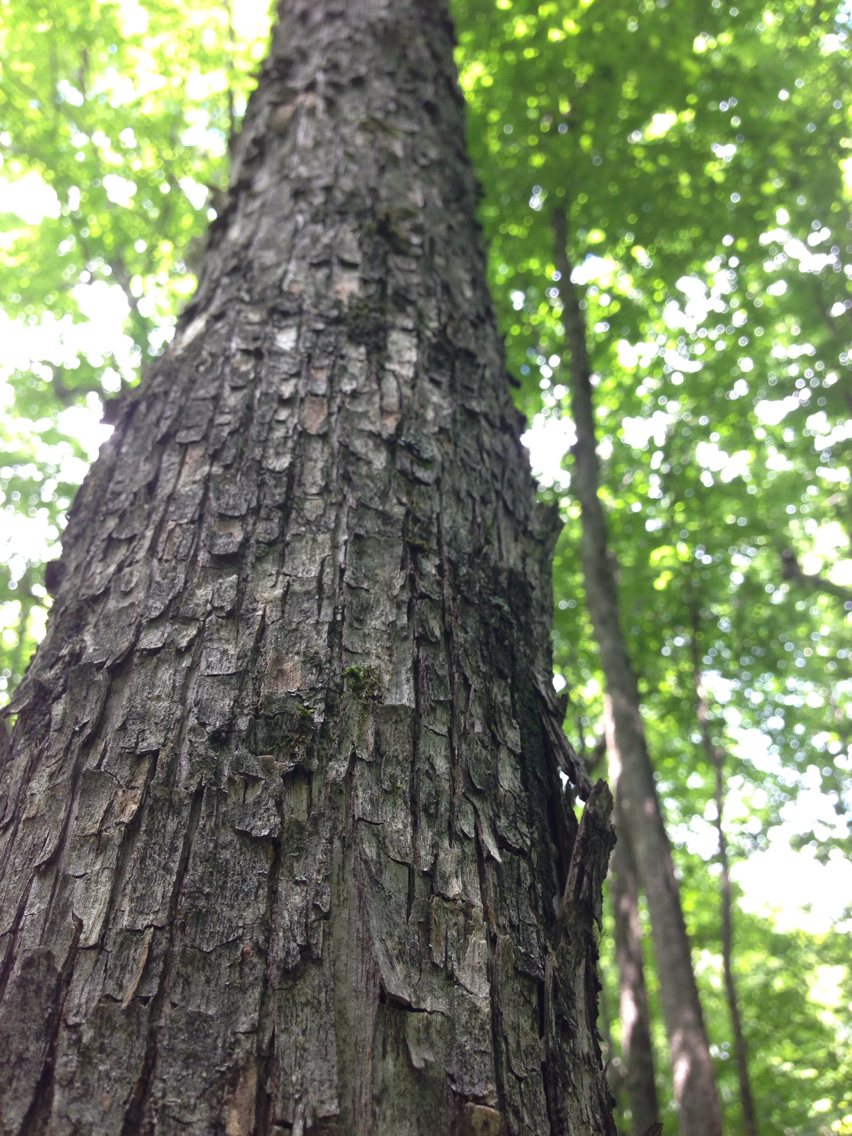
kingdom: Plantae
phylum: Tracheophyta
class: Magnoliopsida
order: Fagales
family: Betulaceae
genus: Ostrya
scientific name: Ostrya virginiana
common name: Ironwood
